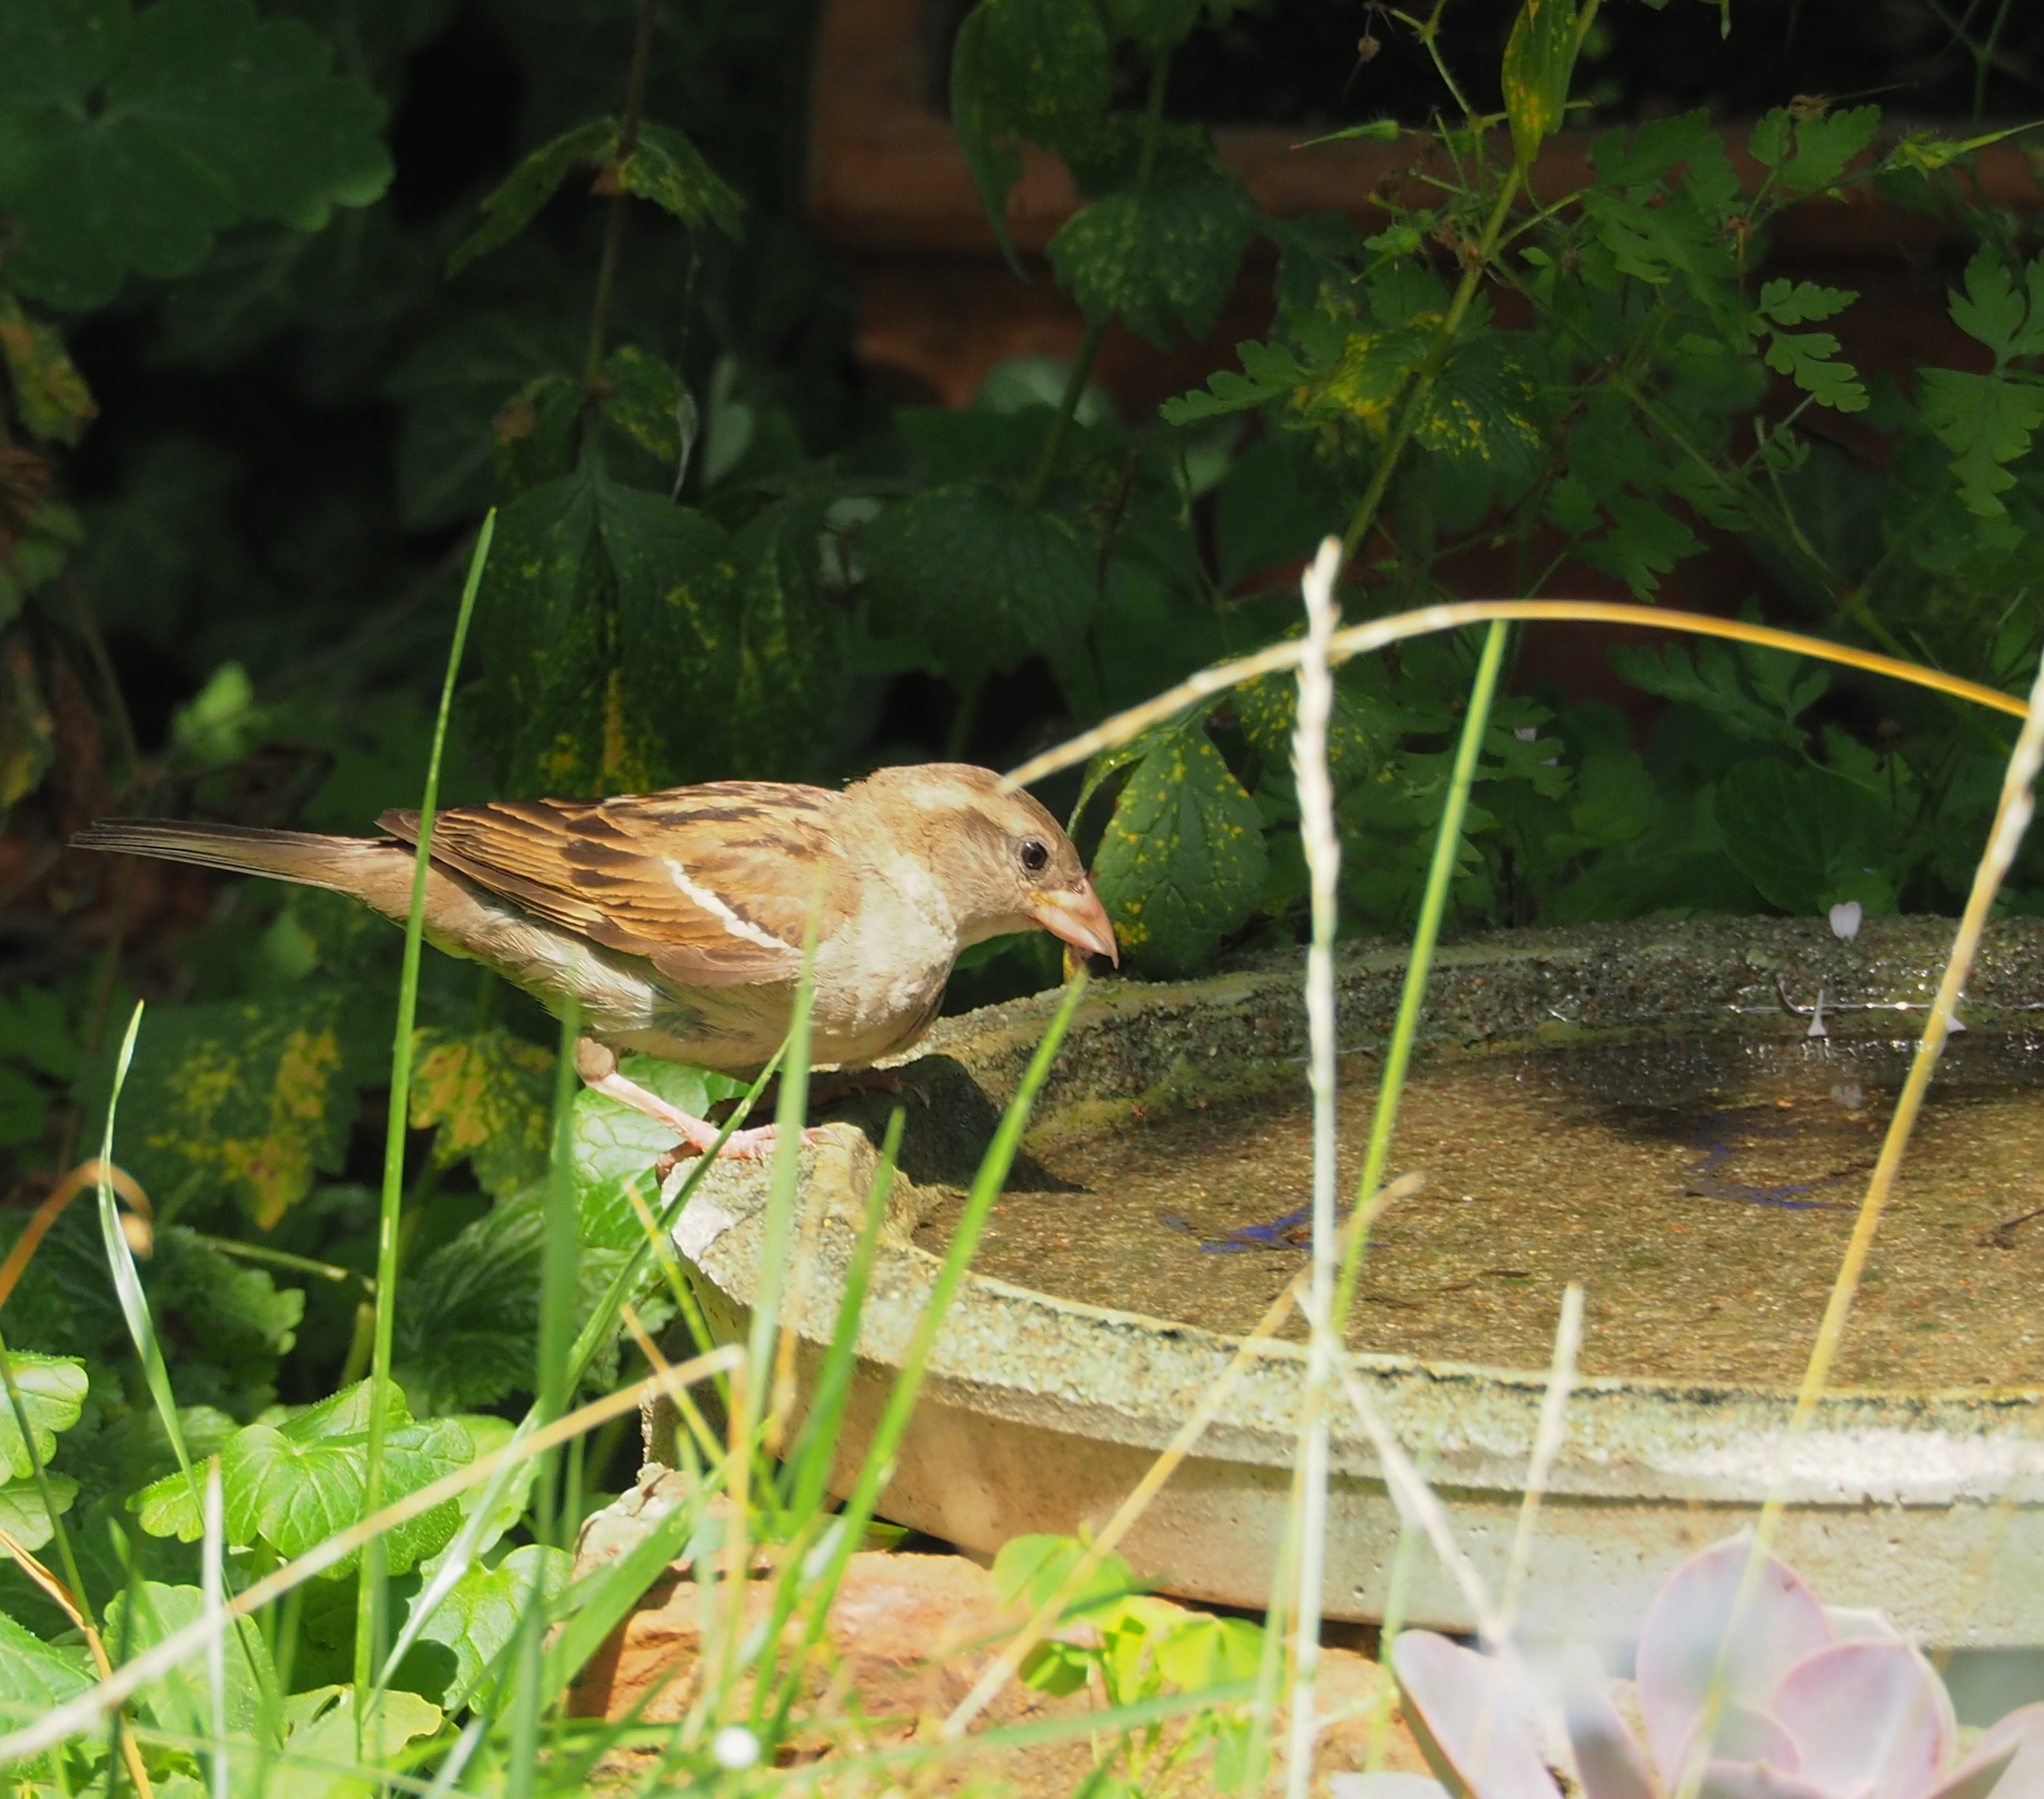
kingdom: Animalia
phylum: Chordata
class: Aves
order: Passeriformes
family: Passeridae
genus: Passer
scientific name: Passer domesticus
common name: House sparrow
